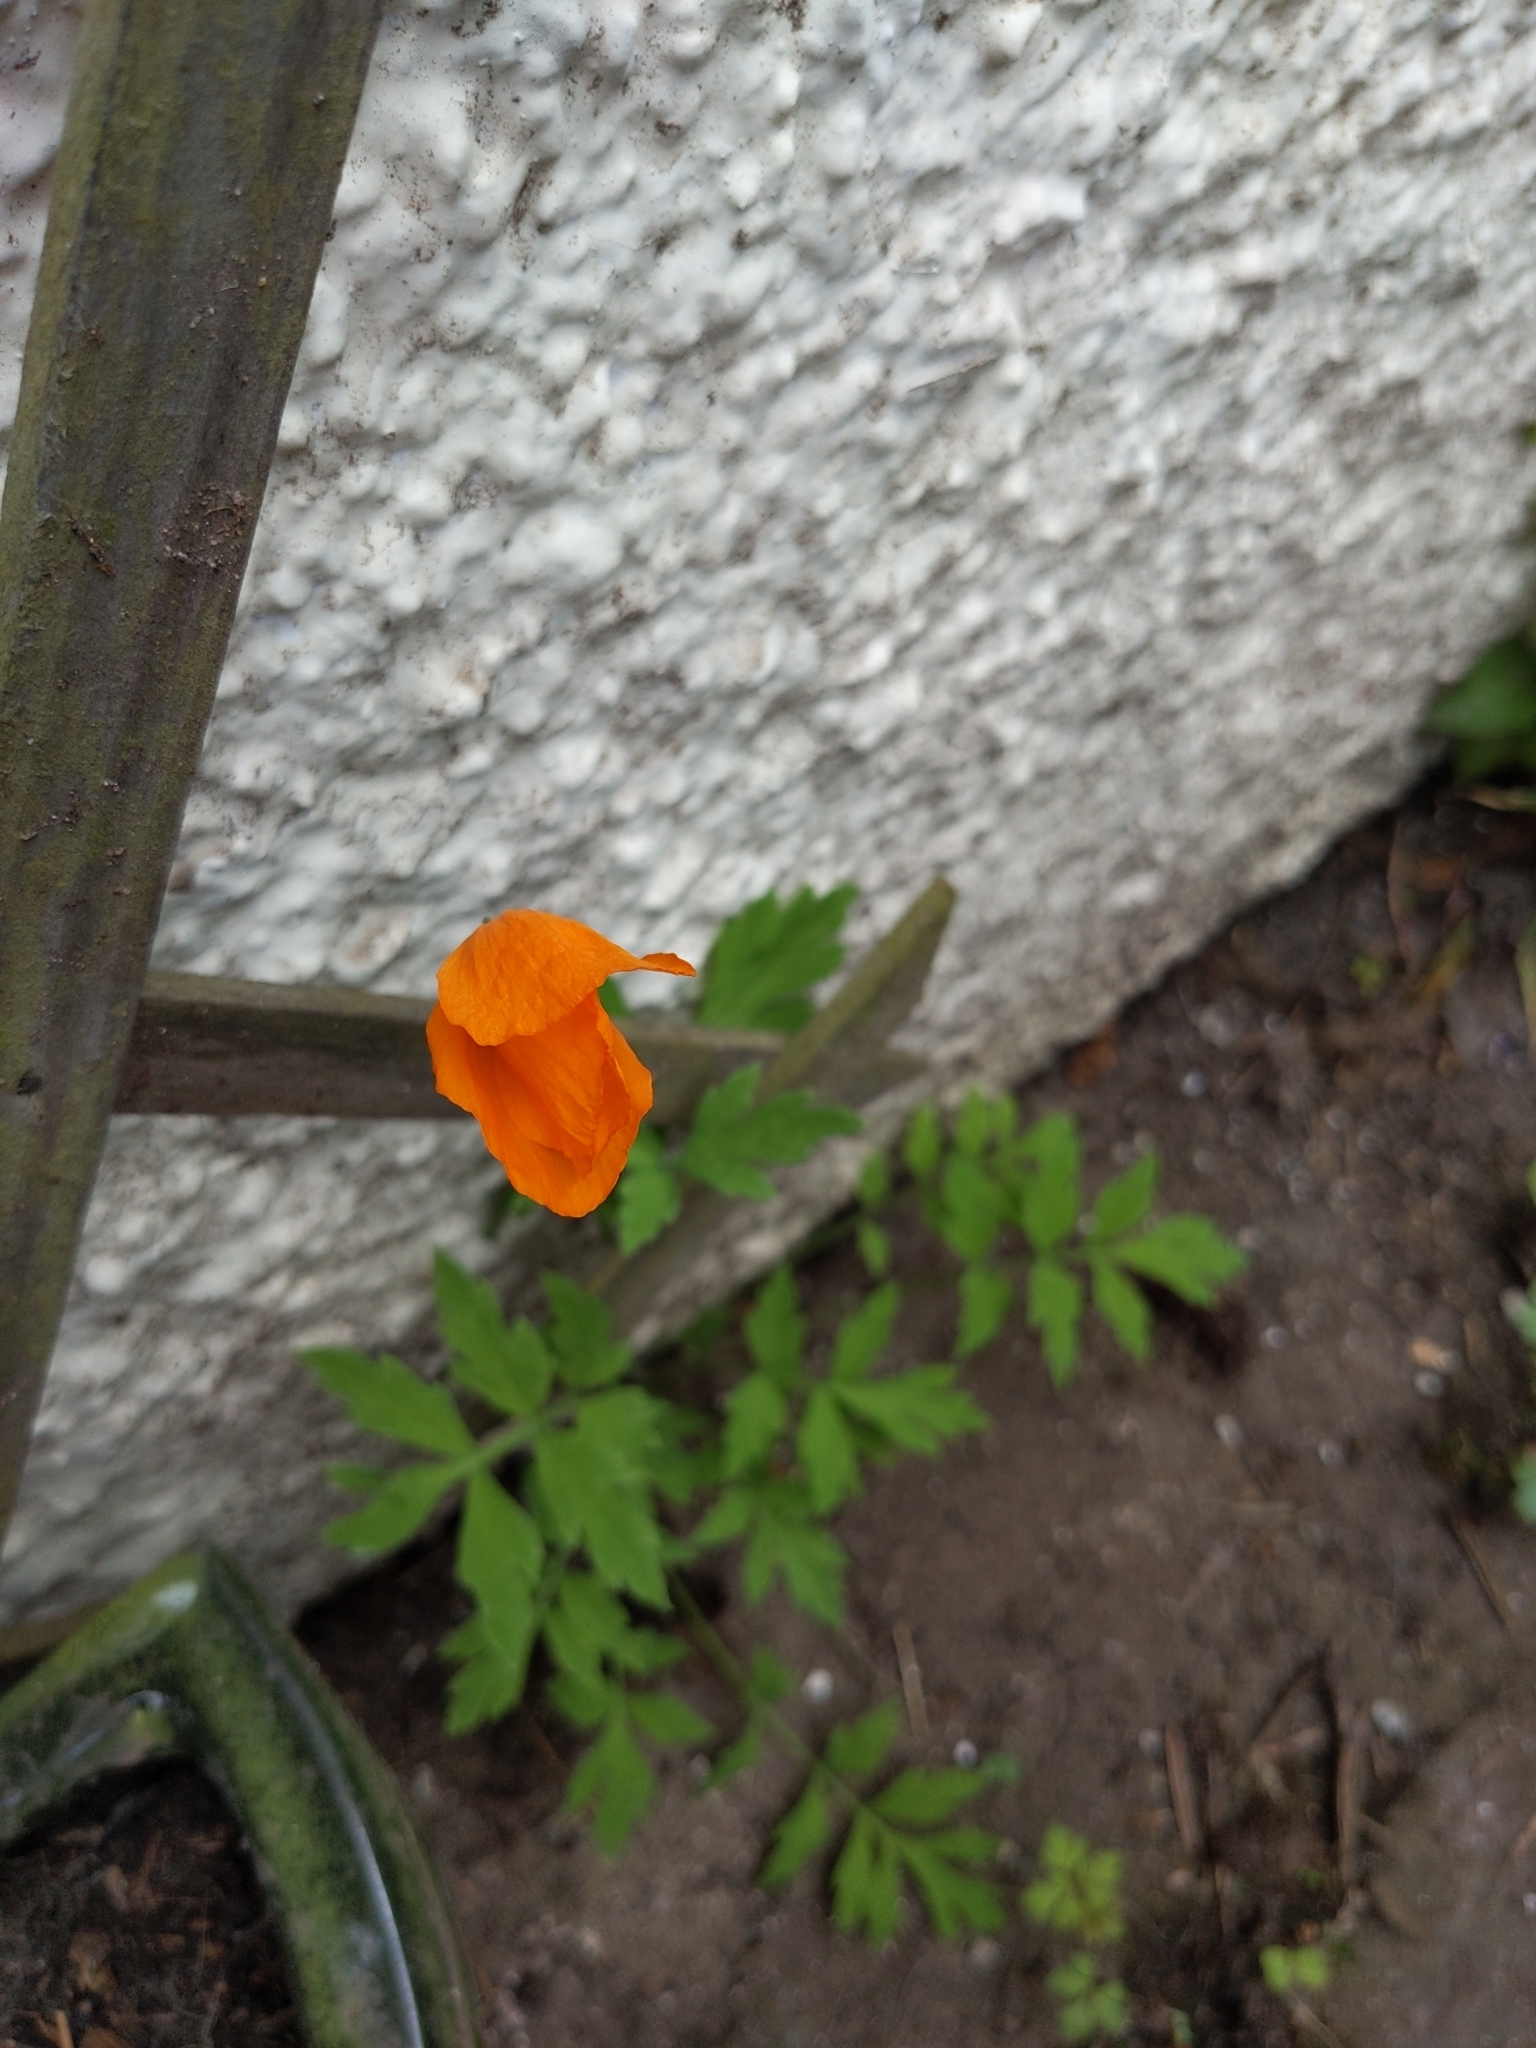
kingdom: Plantae
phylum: Tracheophyta
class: Magnoliopsida
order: Ranunculales
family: Papaveraceae
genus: Papaver
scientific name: Papaver cambricum
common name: Poppy
